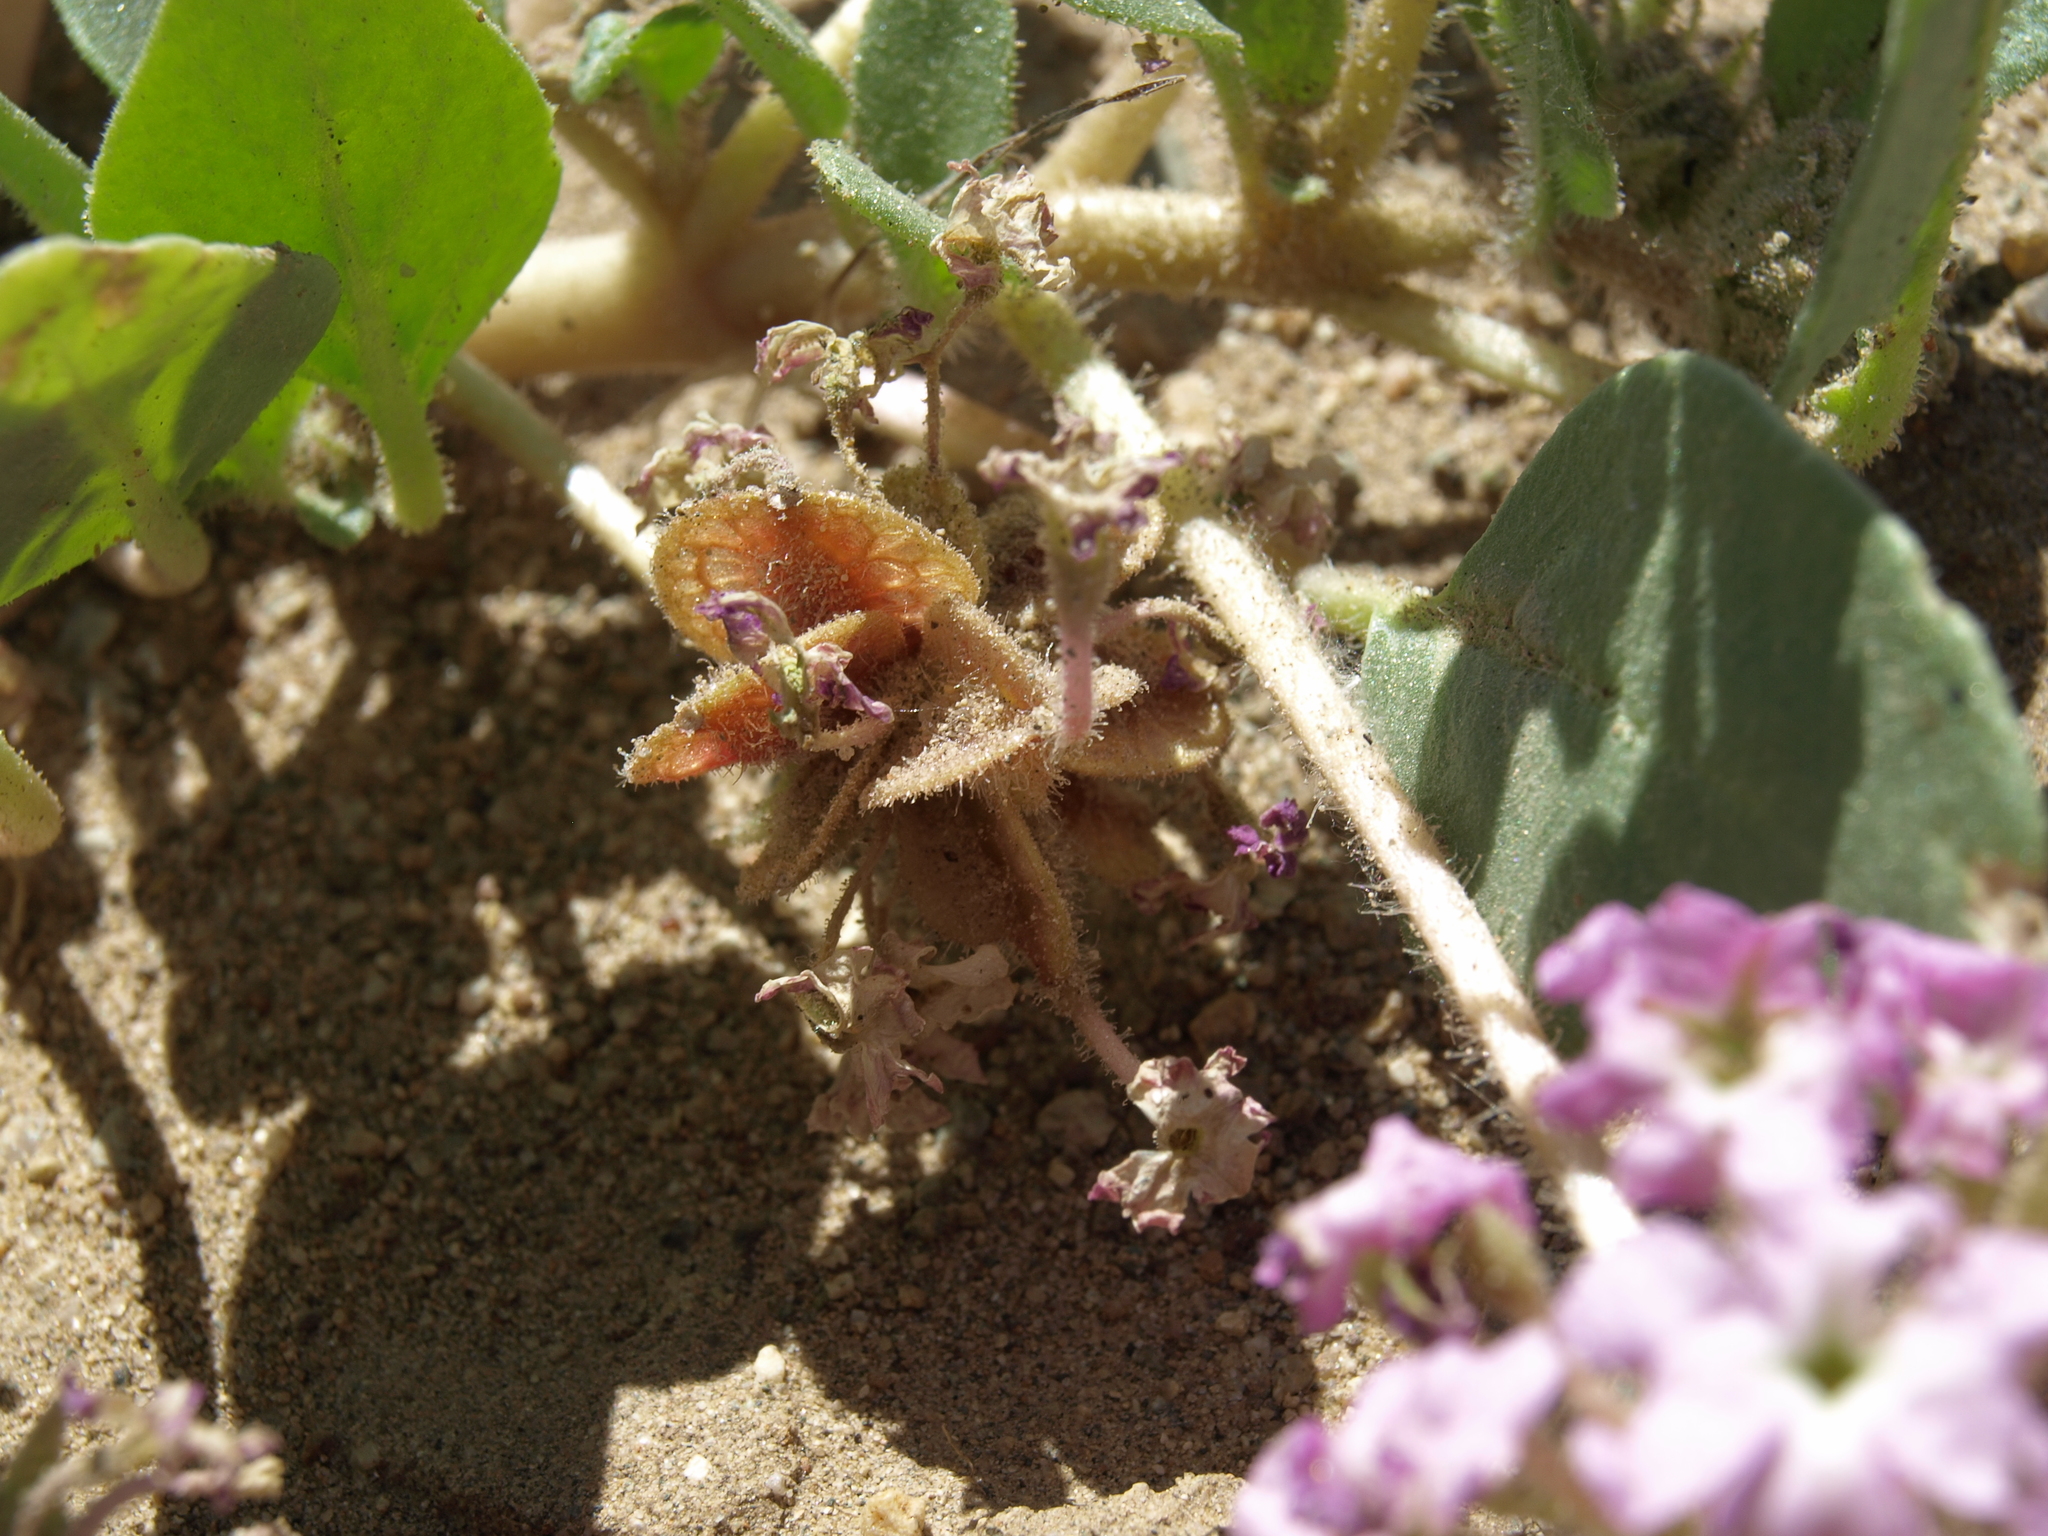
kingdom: Plantae
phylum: Tracheophyta
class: Magnoliopsida
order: Caryophyllales
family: Nyctaginaceae
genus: Tripterocalyx
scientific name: Tripterocalyx crux-maltae
